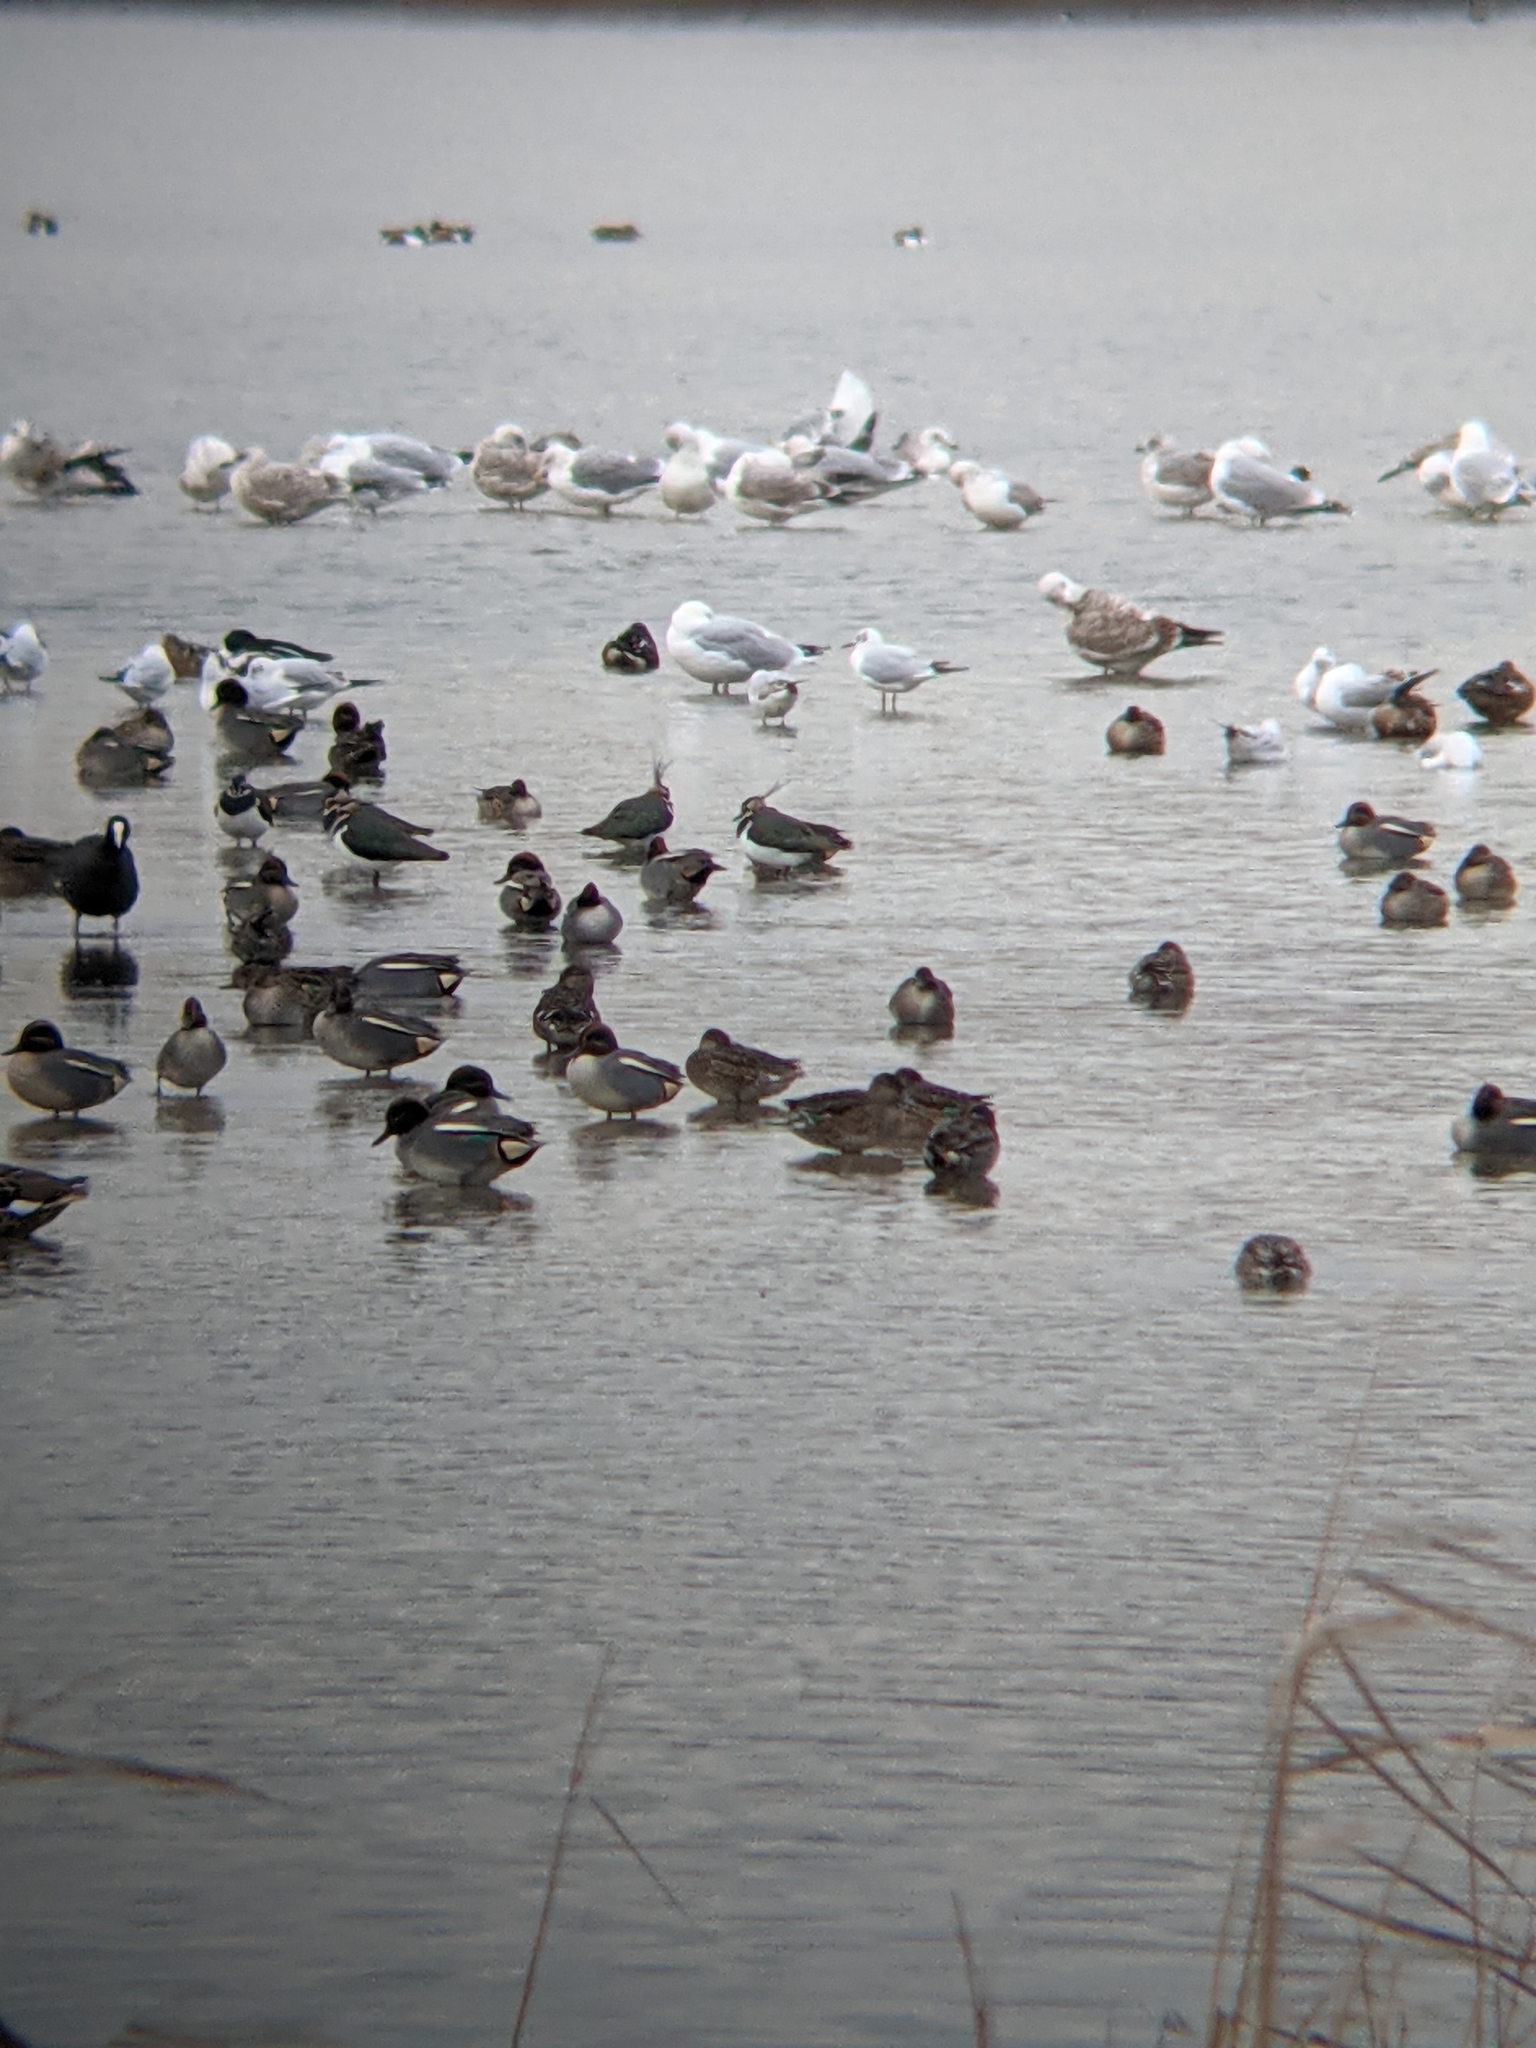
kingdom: Animalia
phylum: Chordata
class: Aves
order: Charadriiformes
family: Charadriidae
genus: Vanellus
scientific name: Vanellus vanellus
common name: Northern lapwing
